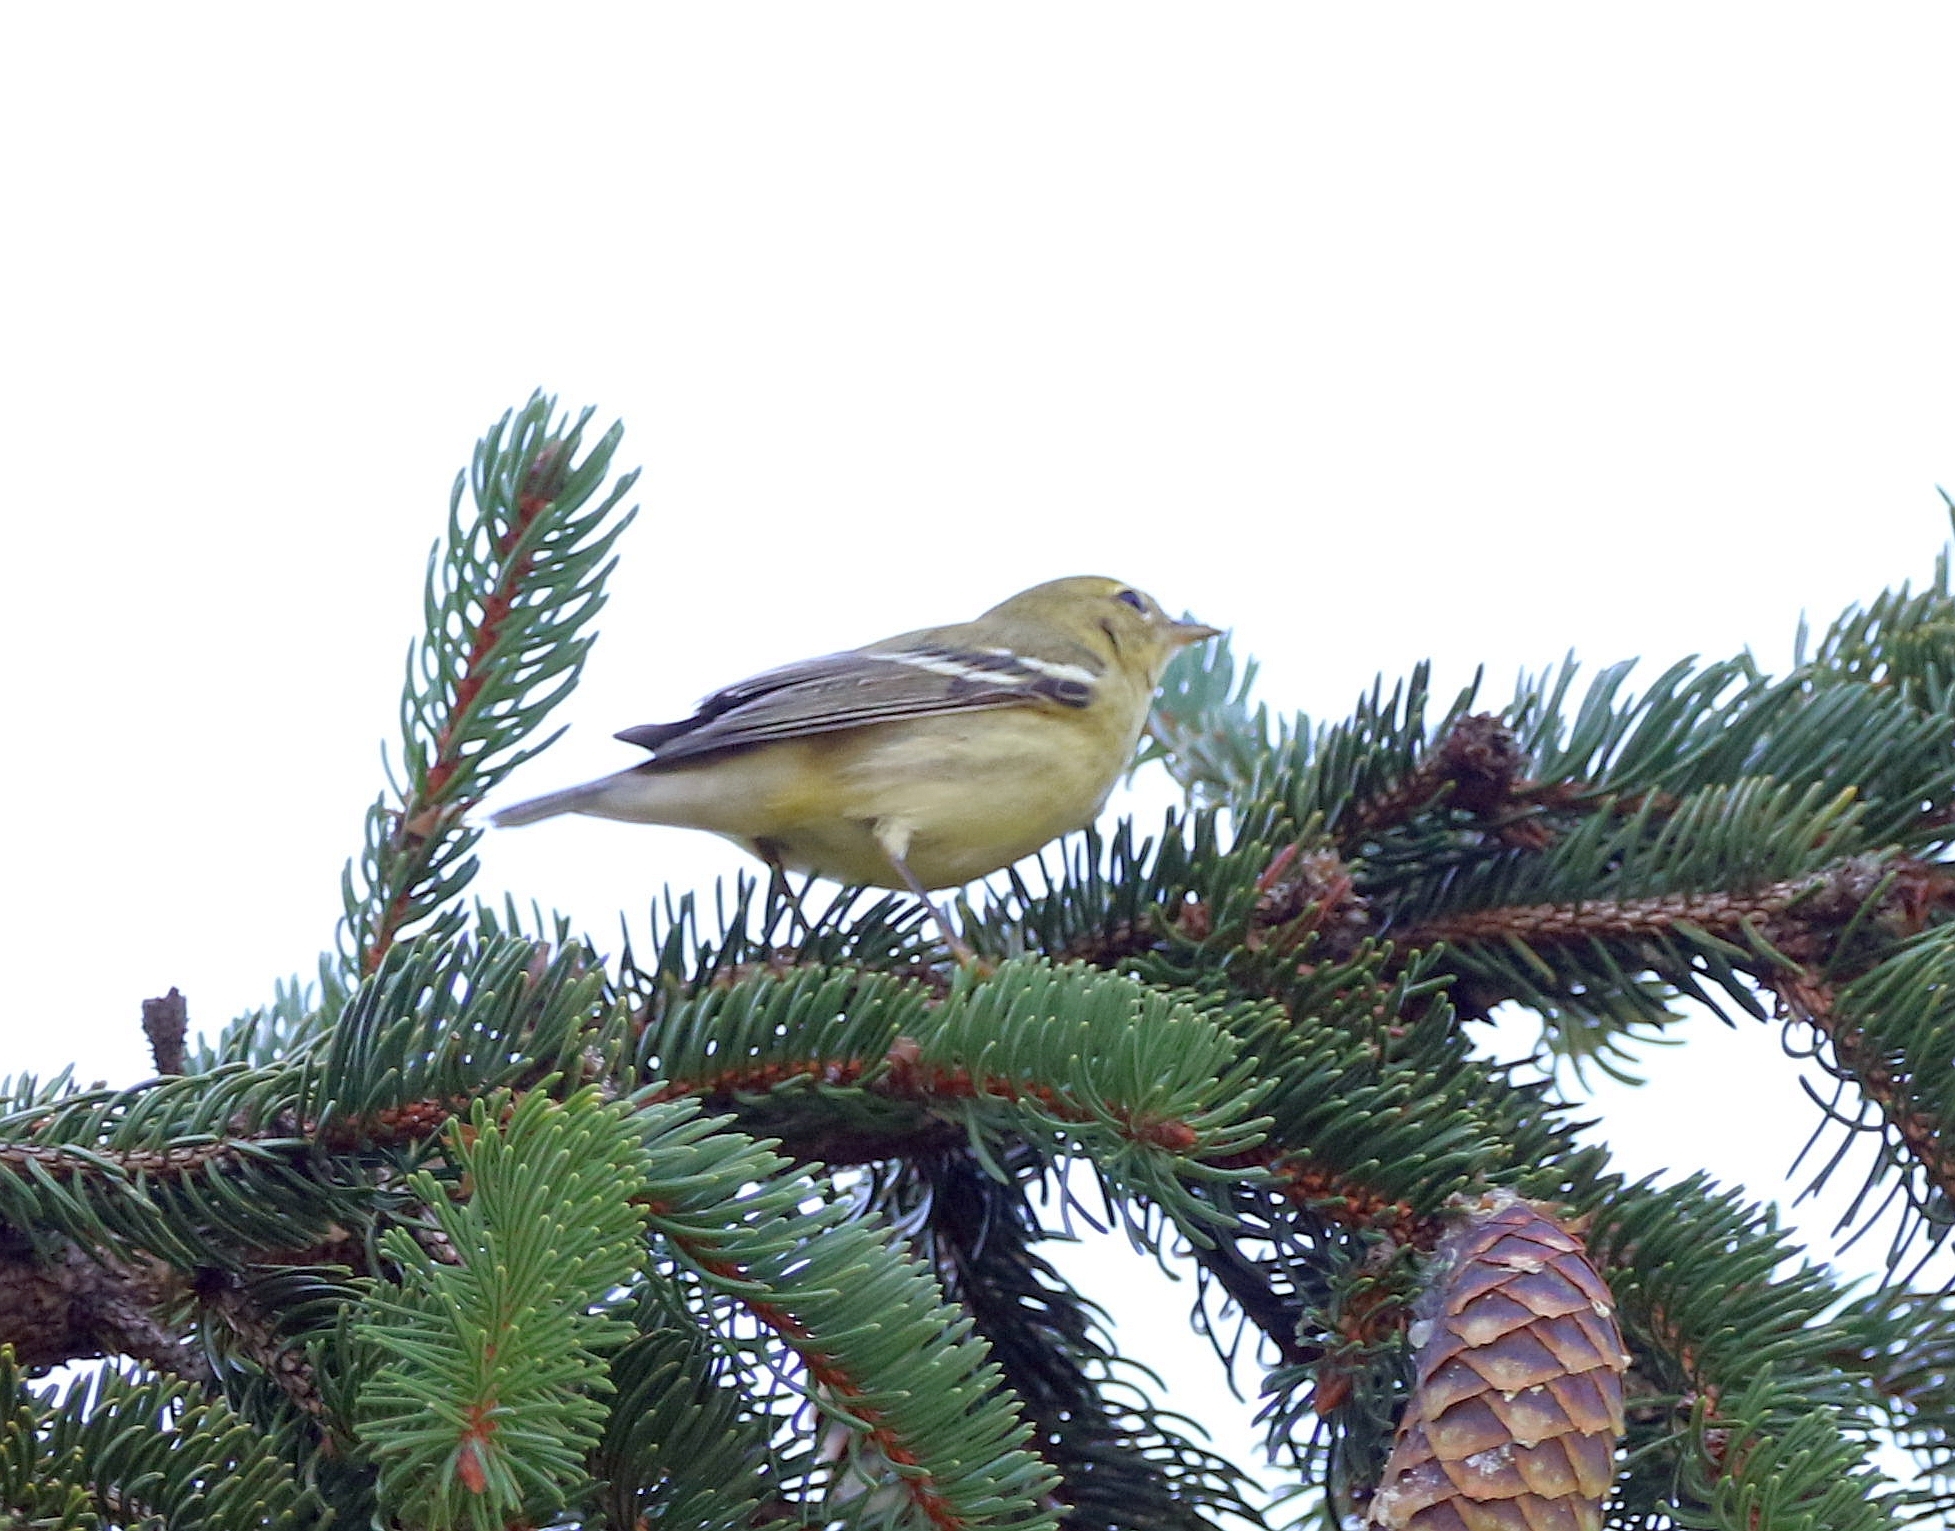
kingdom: Animalia
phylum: Chordata
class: Aves
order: Passeriformes
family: Parulidae
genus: Setophaga
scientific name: Setophaga striata
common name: Blackpoll warbler
